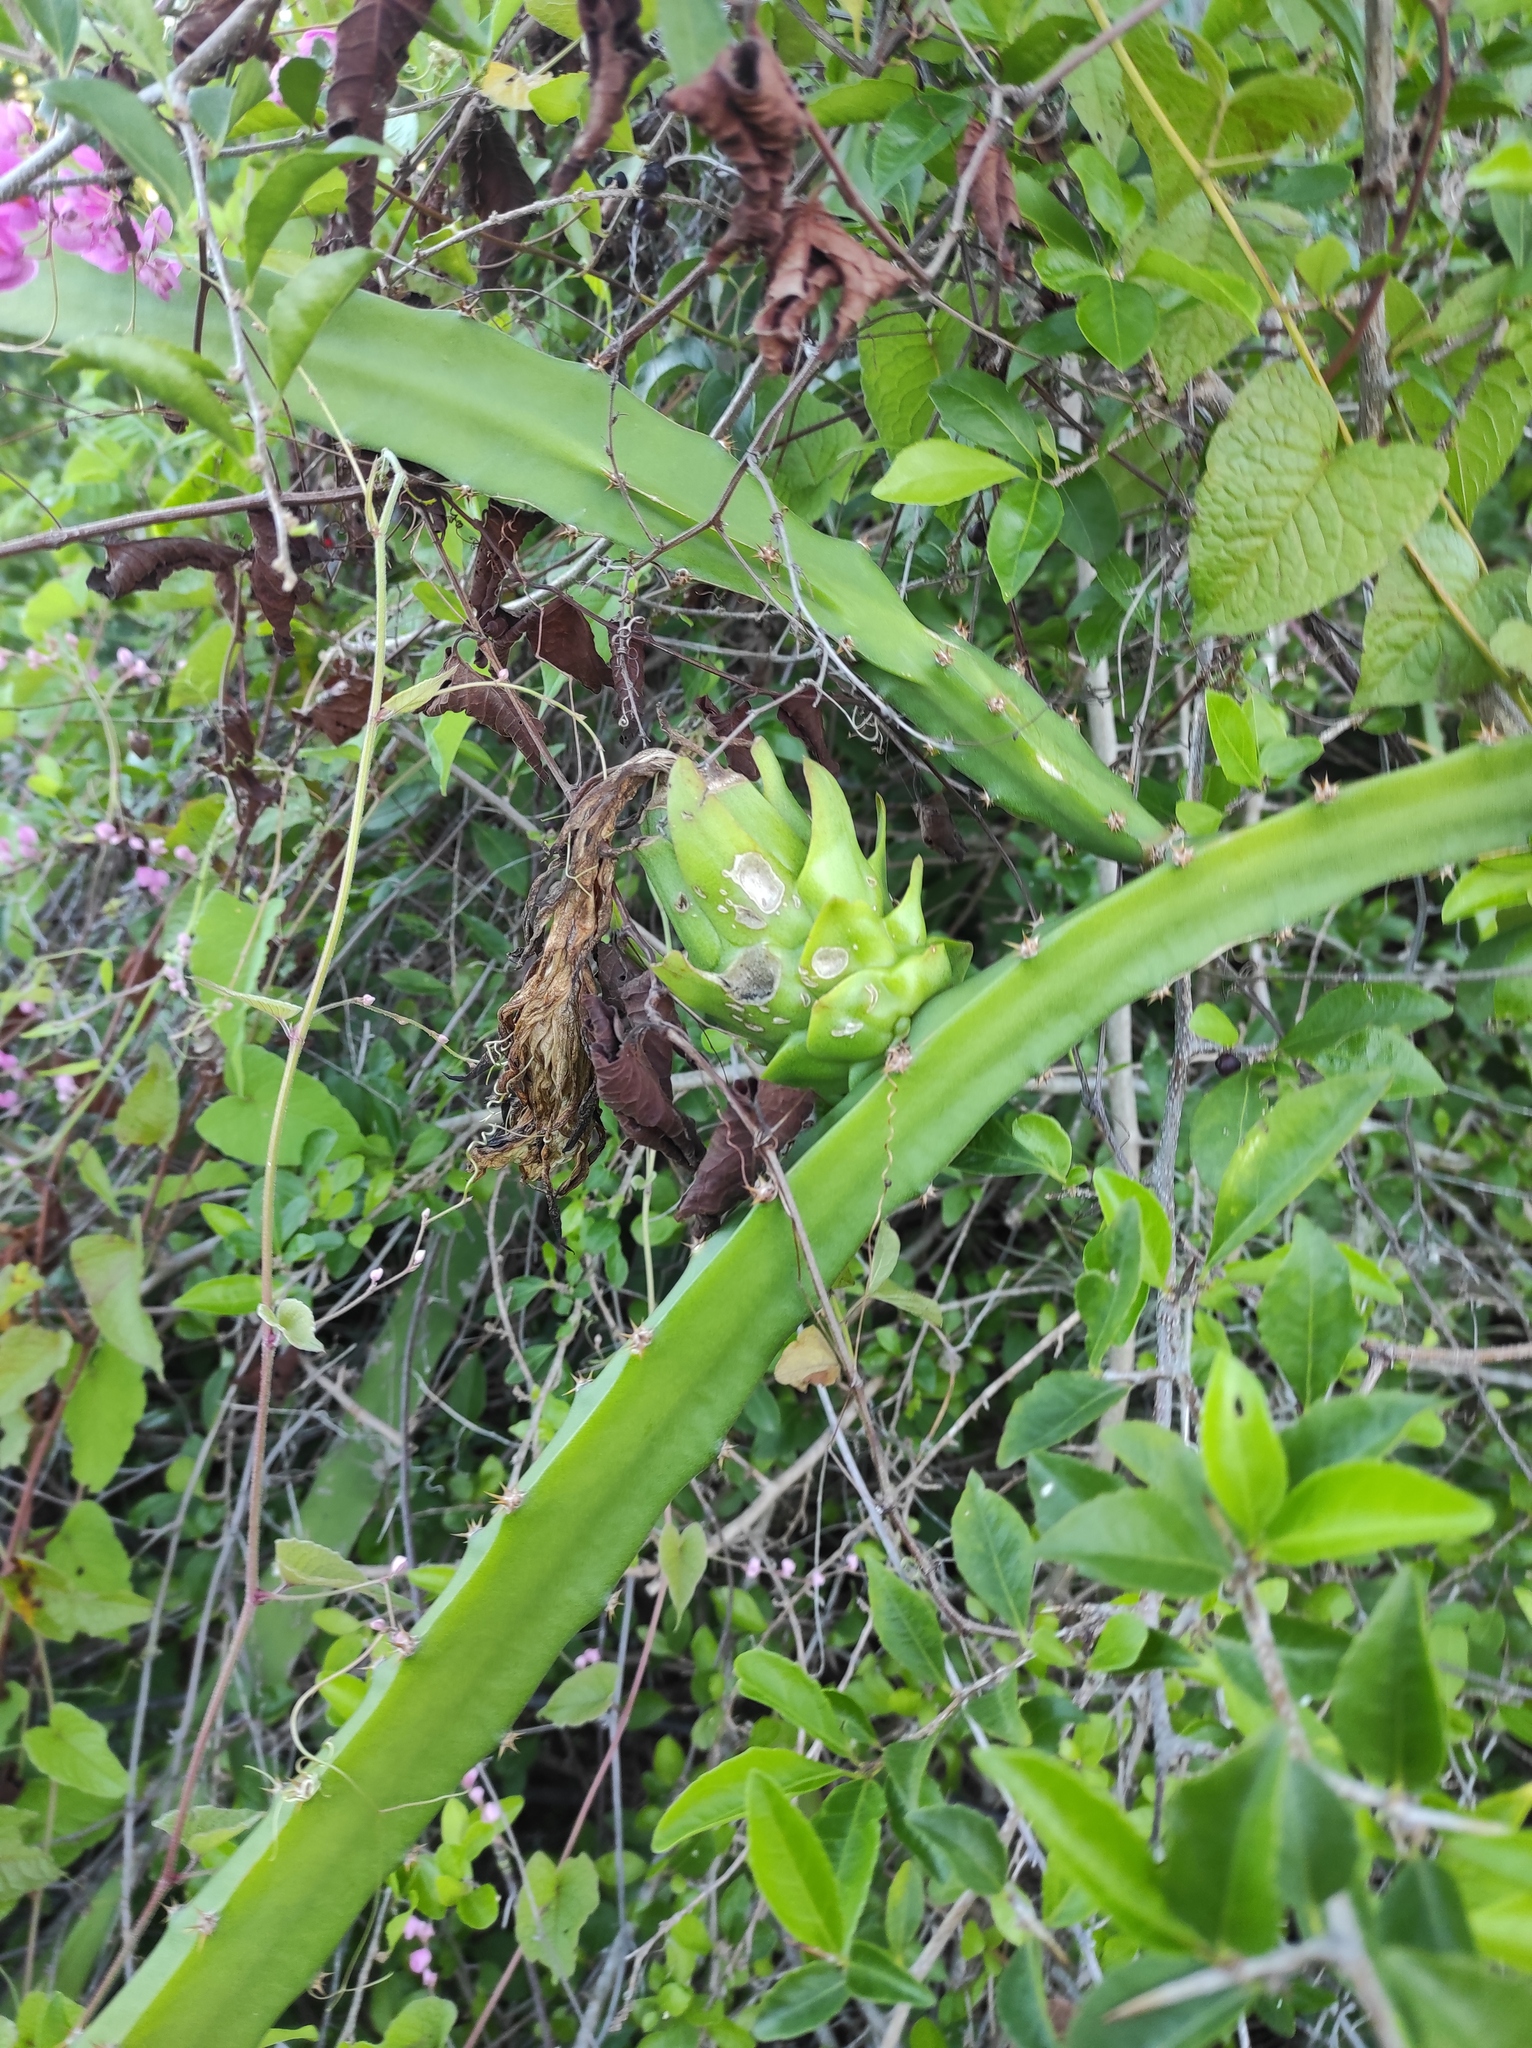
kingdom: Plantae
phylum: Tracheophyta
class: Magnoliopsida
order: Caryophyllales
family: Cactaceae
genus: Leptocereus
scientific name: Leptocereus weingartianus
